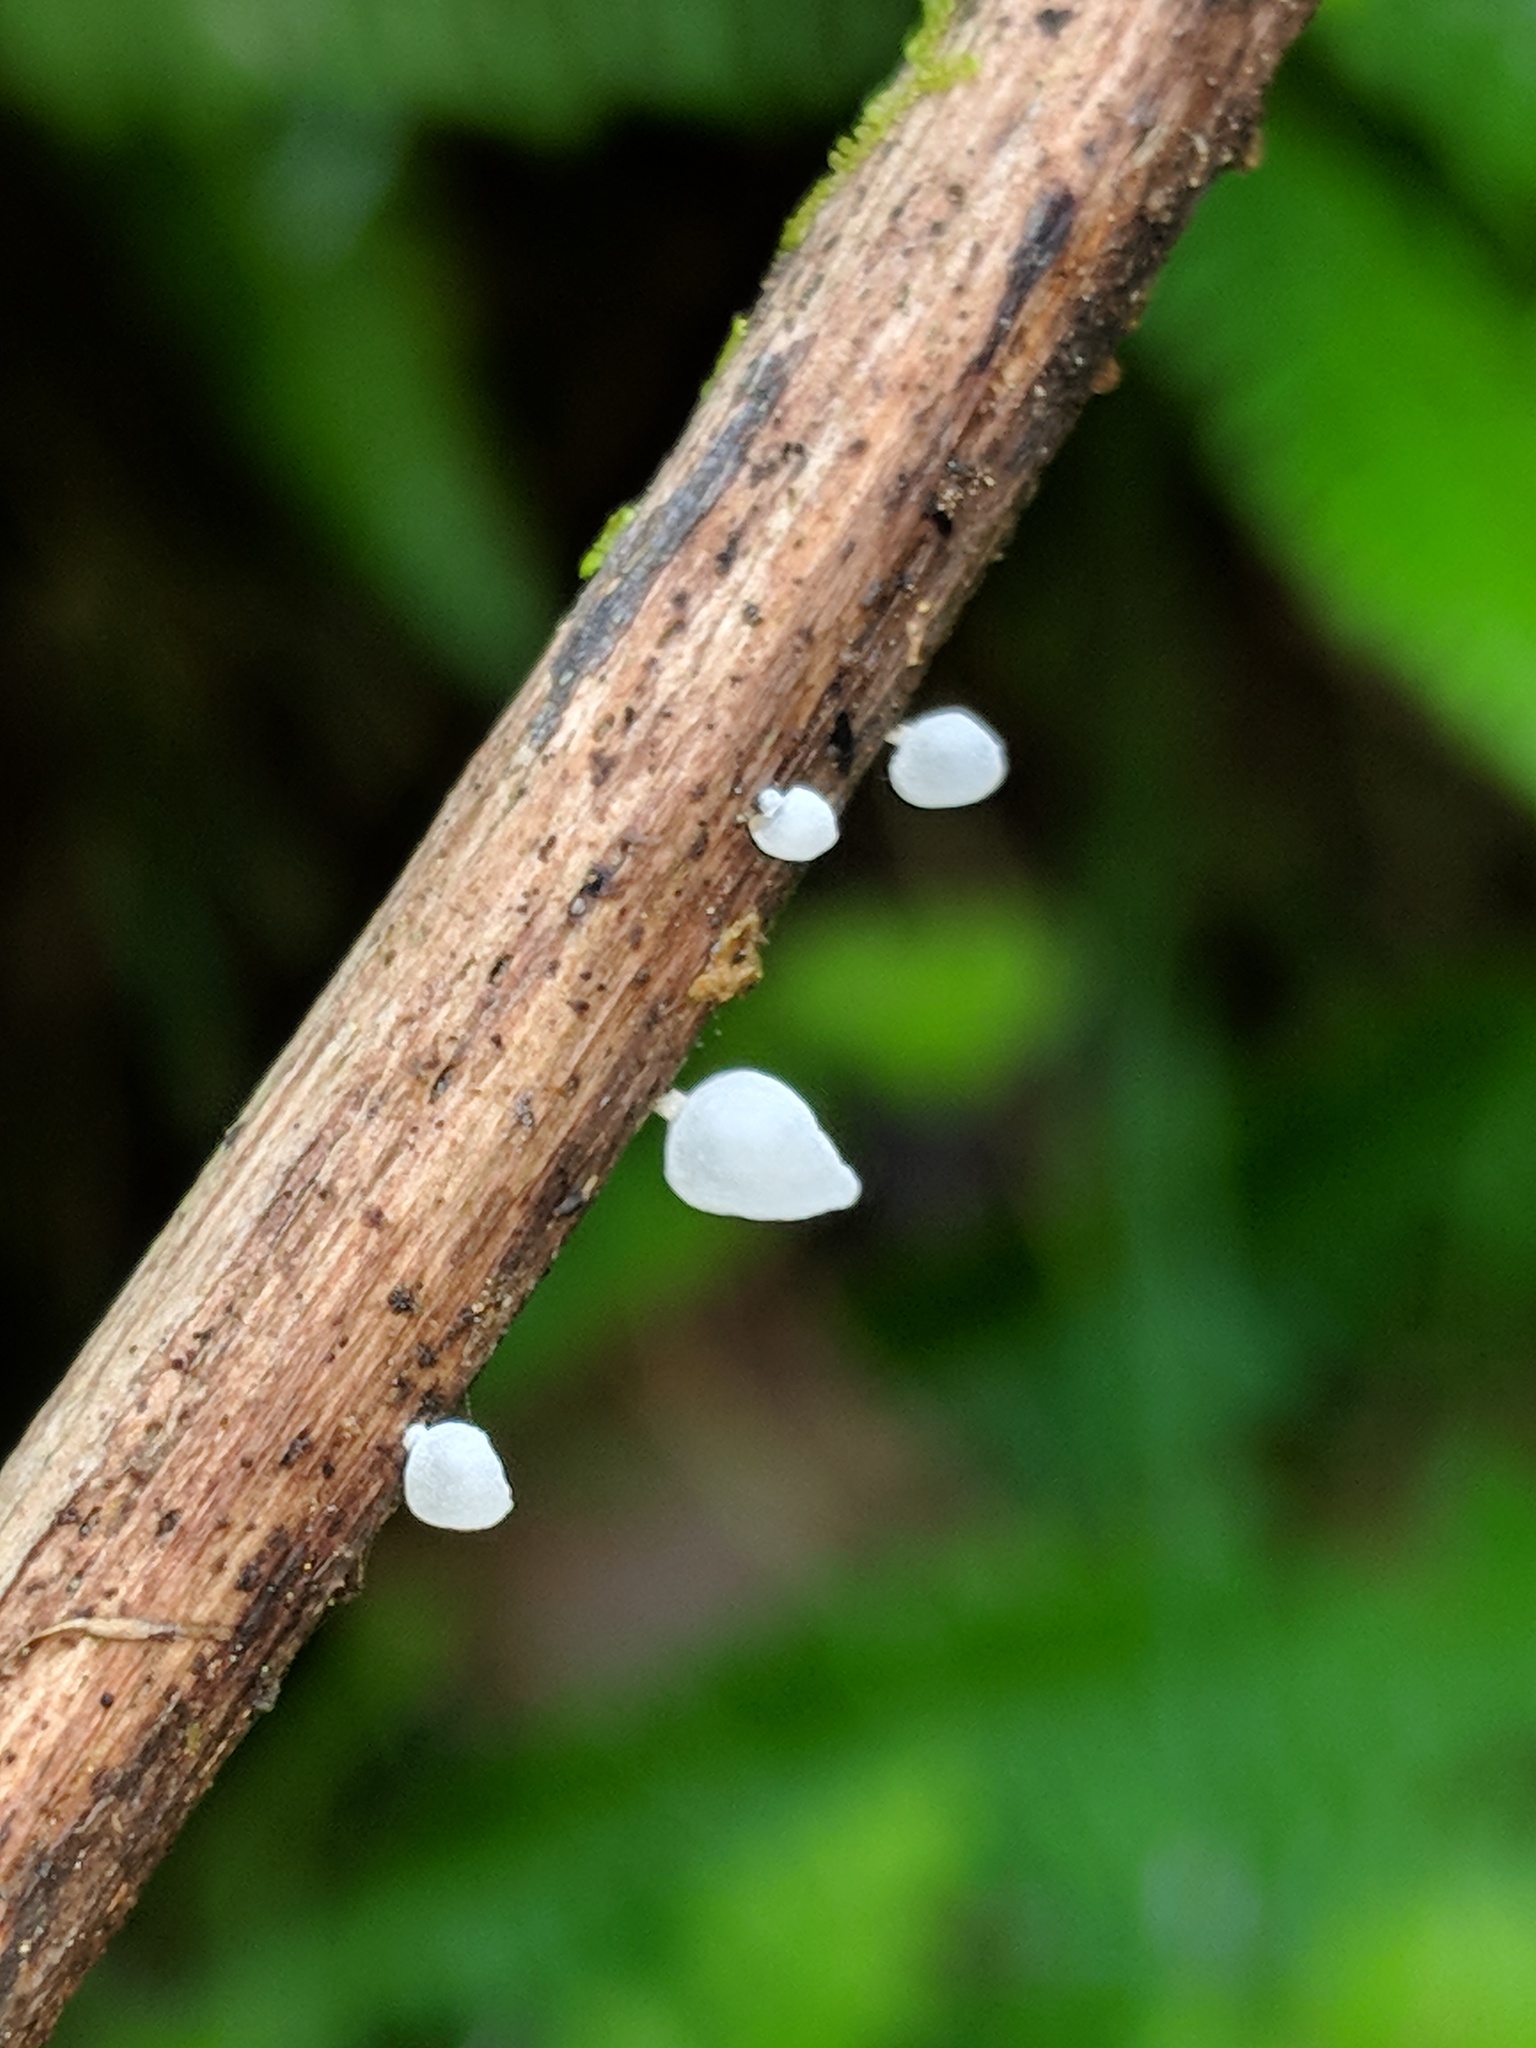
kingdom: Fungi
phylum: Basidiomycota
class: Agaricomycetes
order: Agaricales
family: Marasmiaceae
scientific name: Marasmiaceae
